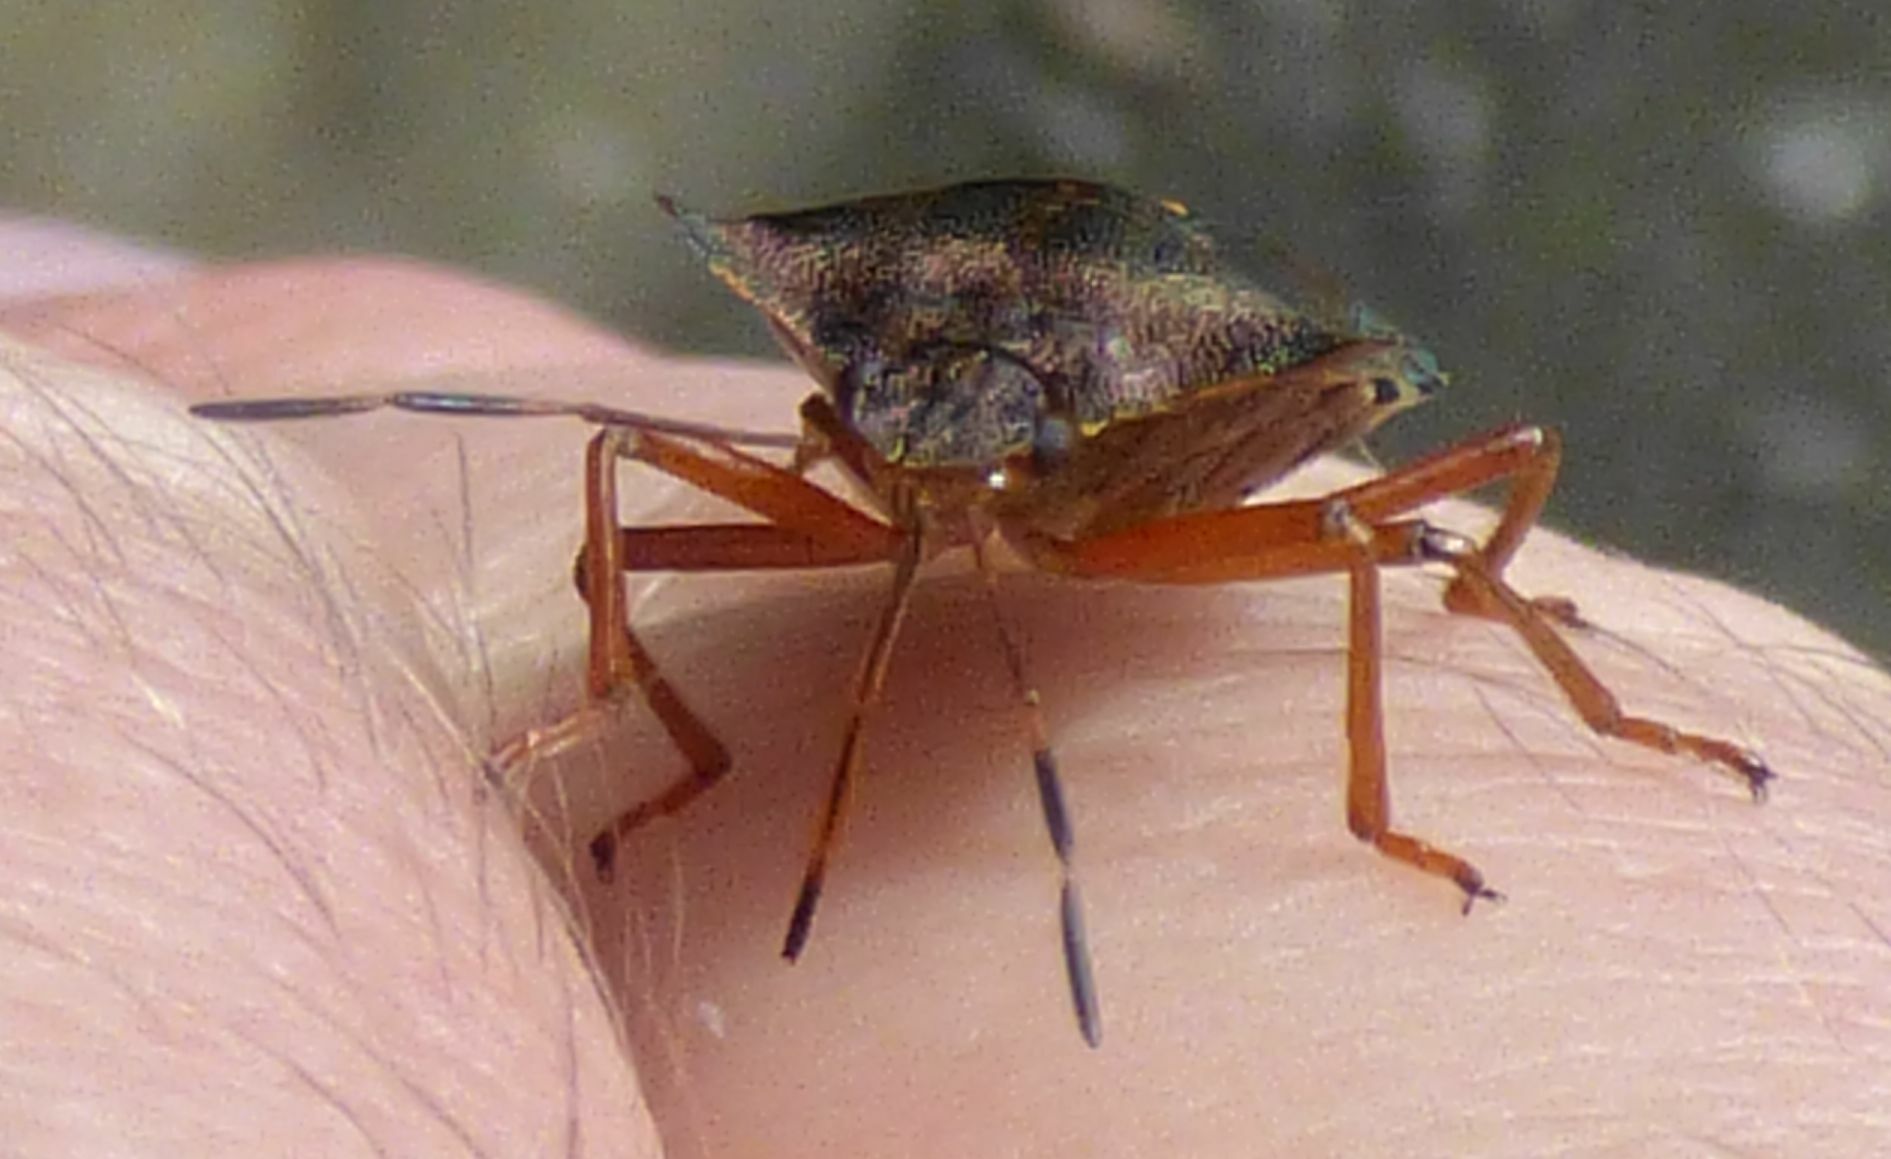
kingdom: Animalia
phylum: Arthropoda
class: Insecta
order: Hemiptera
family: Pentatomidae
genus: Pentatoma
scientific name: Pentatoma rufipes
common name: Forest bug
